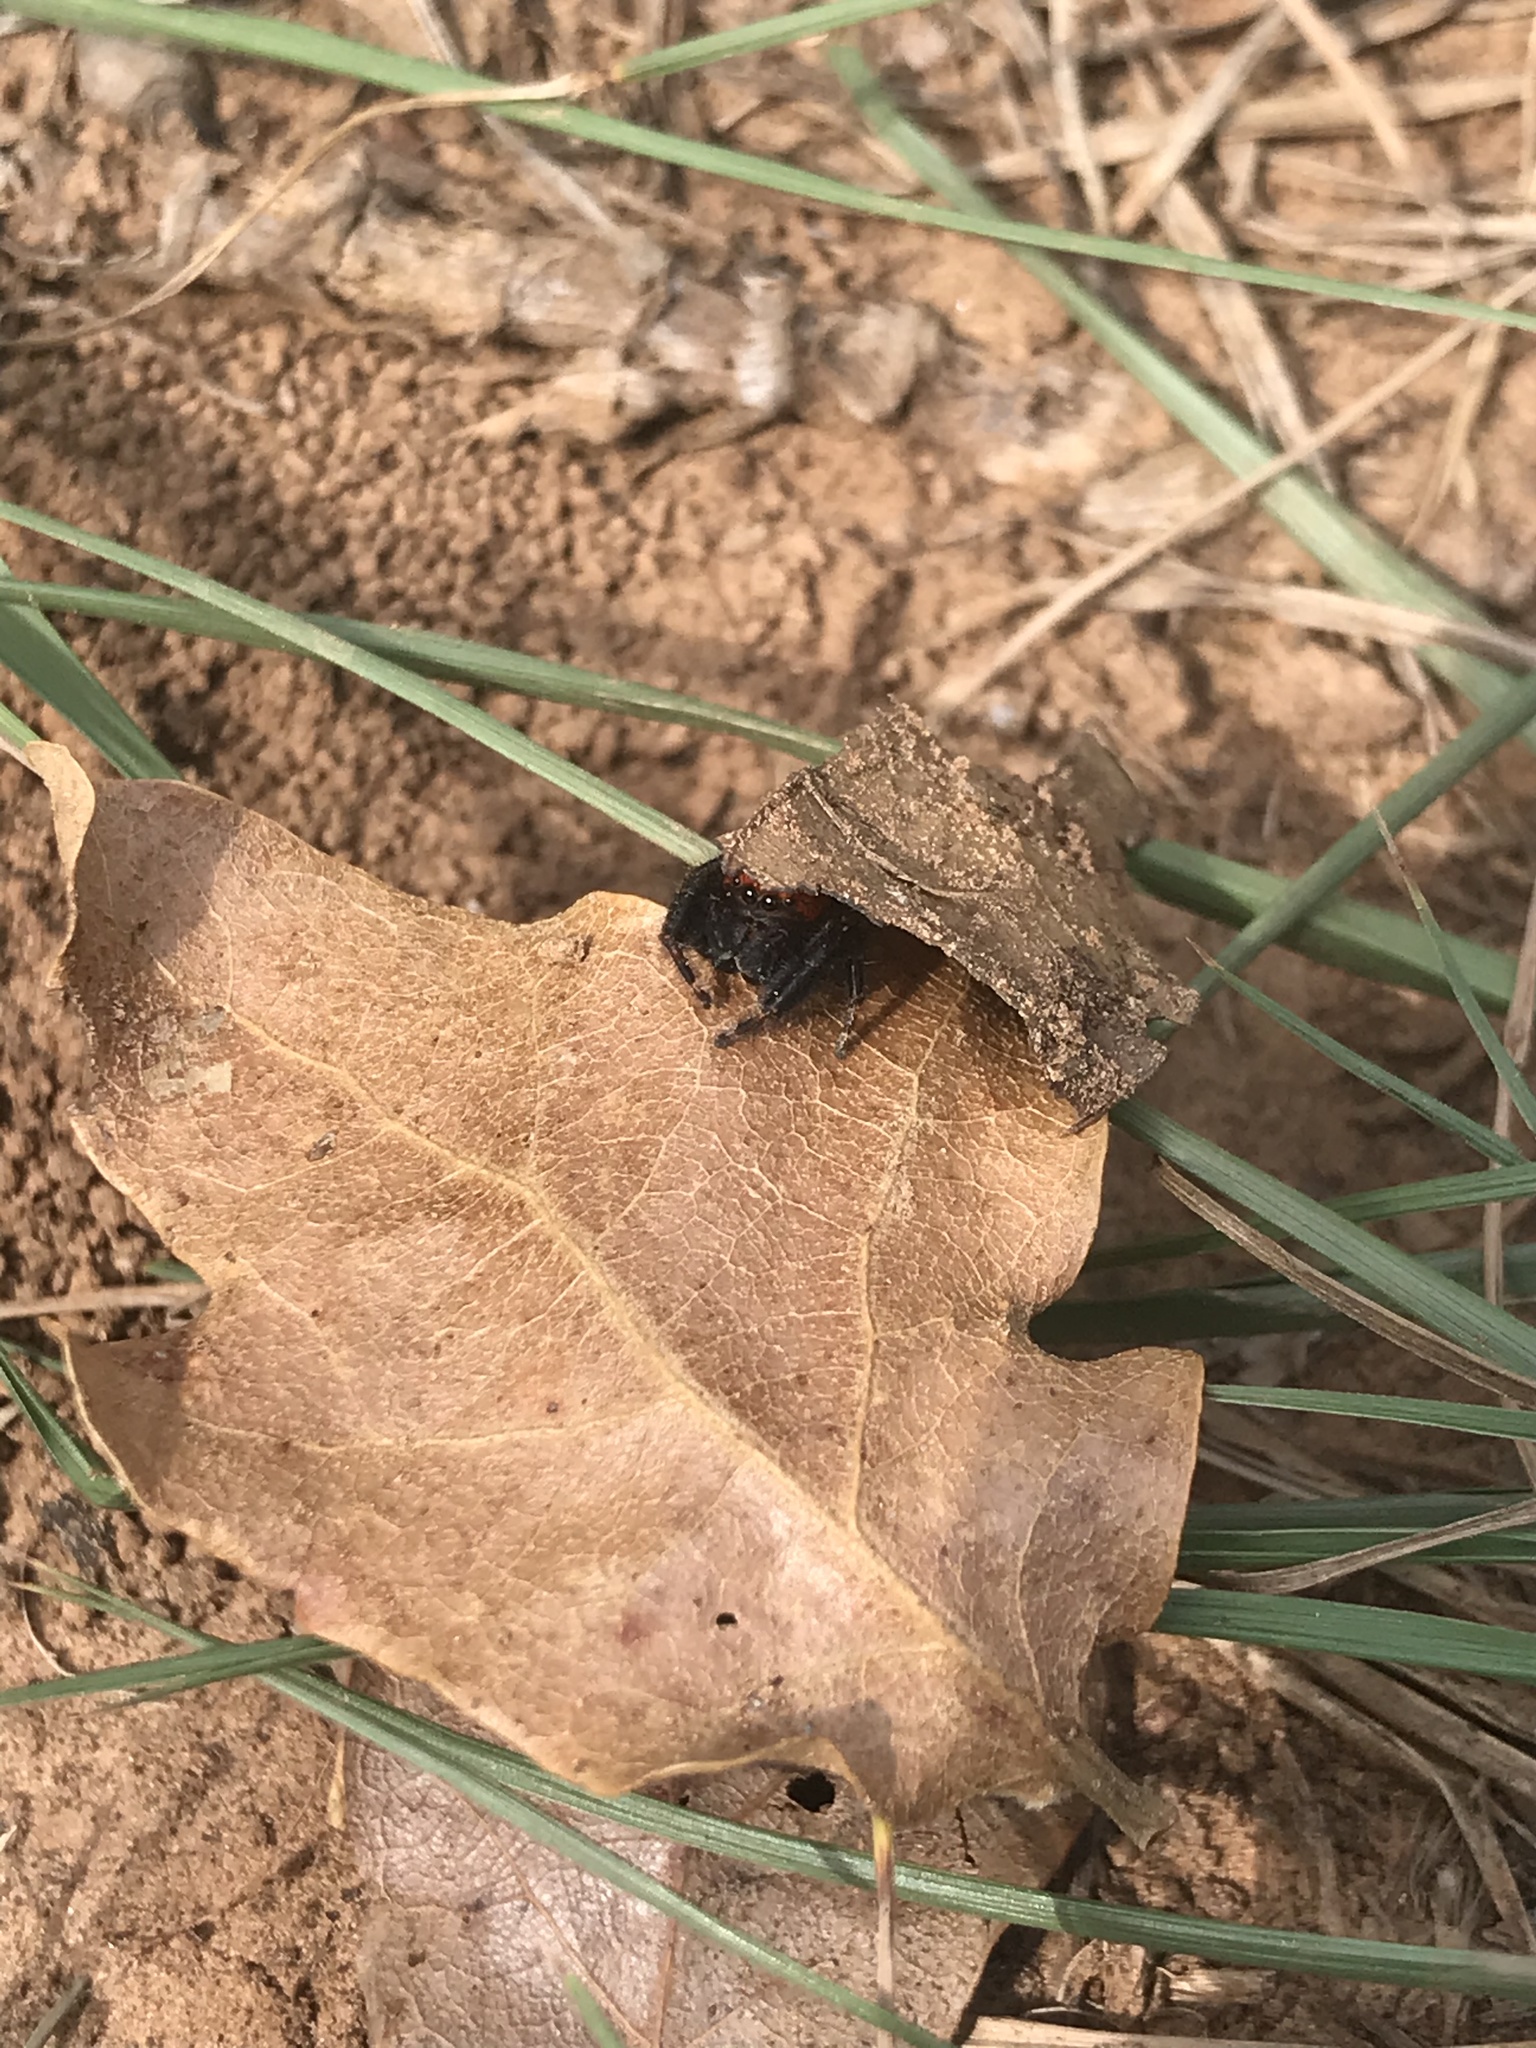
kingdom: Animalia
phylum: Arthropoda
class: Arachnida
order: Araneae
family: Salticidae
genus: Phidippus
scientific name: Phidippus cardinalis
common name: Cardinal jumper
